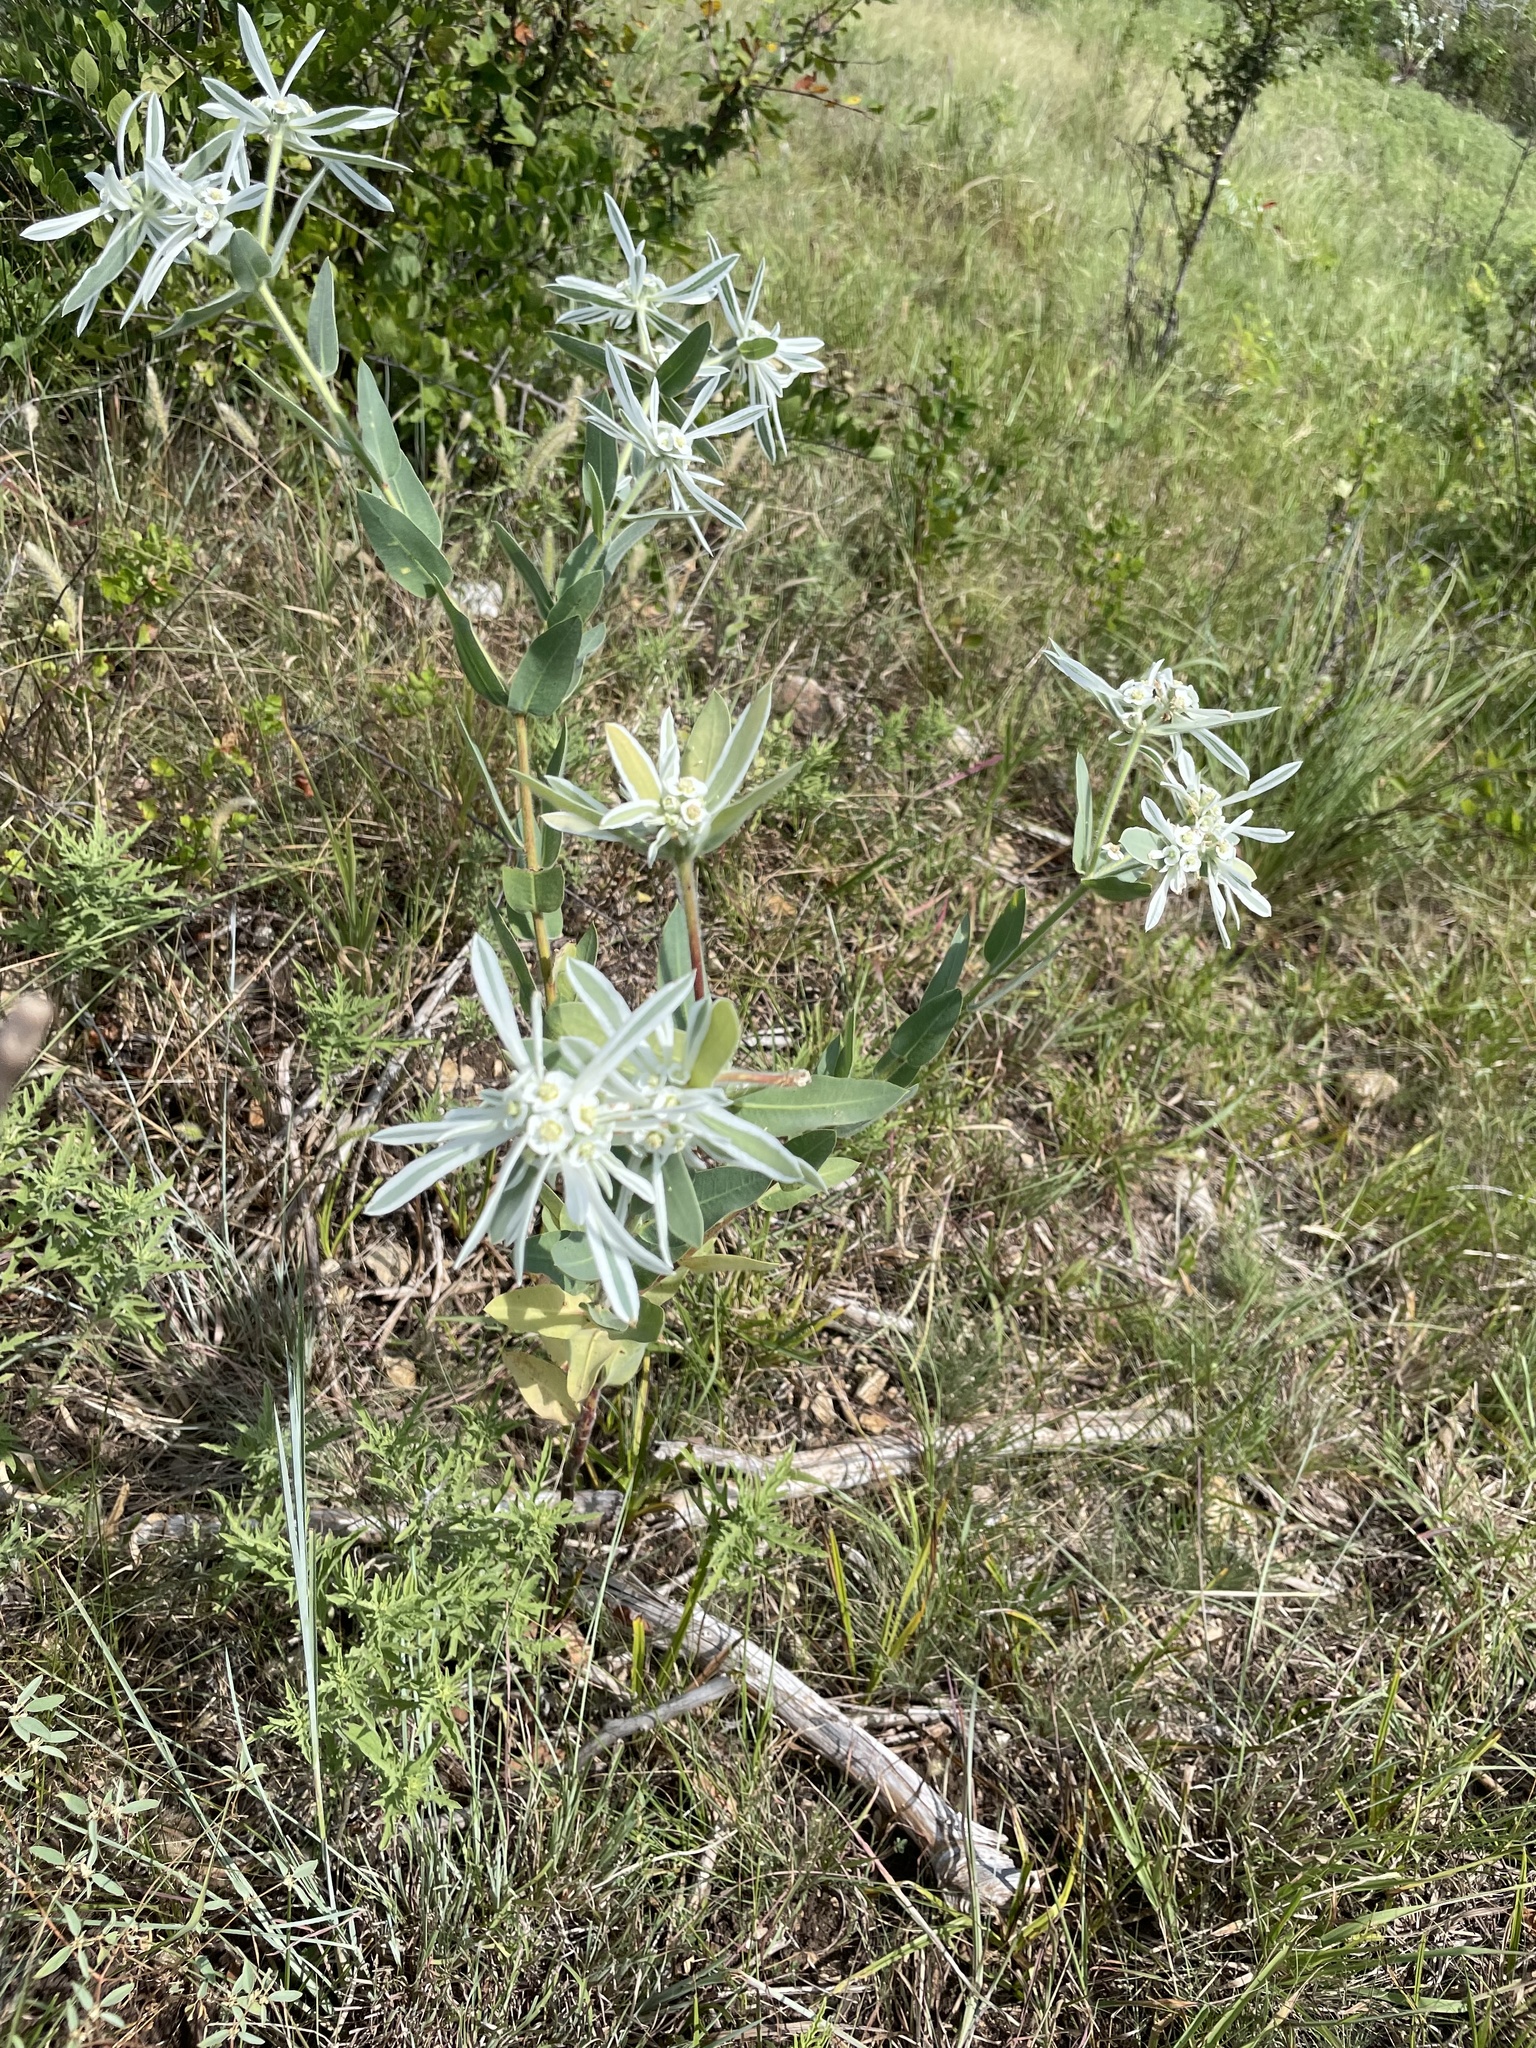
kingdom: Plantae
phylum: Tracheophyta
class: Magnoliopsida
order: Malpighiales
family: Euphorbiaceae
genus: Euphorbia
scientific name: Euphorbia bicolor
